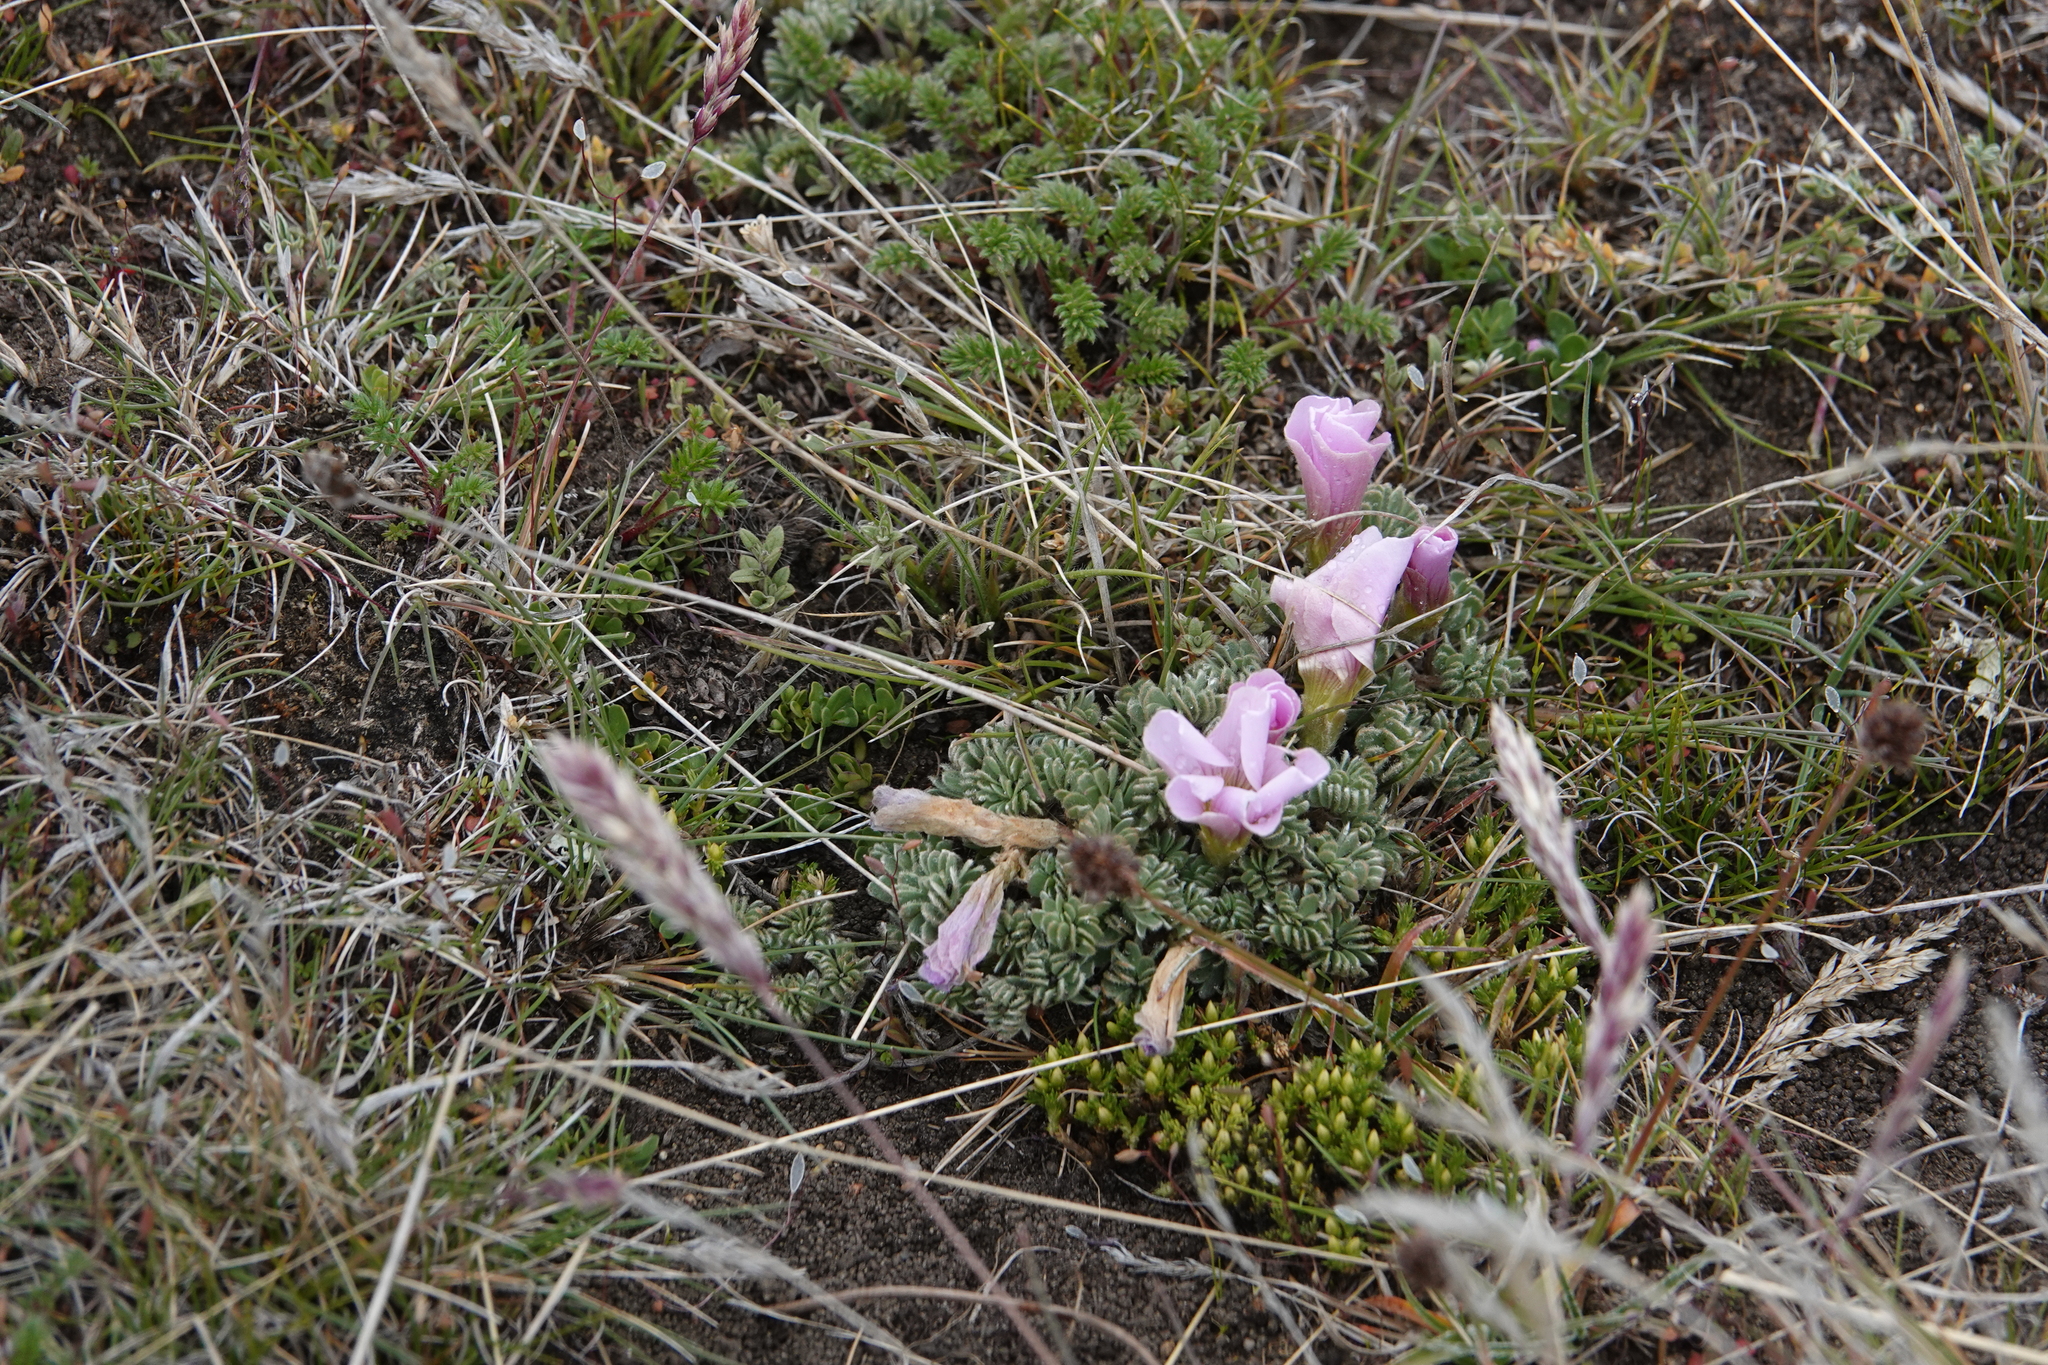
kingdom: Plantae
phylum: Tracheophyta
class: Magnoliopsida
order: Oxalidales
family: Oxalidaceae
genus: Oxalis
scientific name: Oxalis enneaphylla
